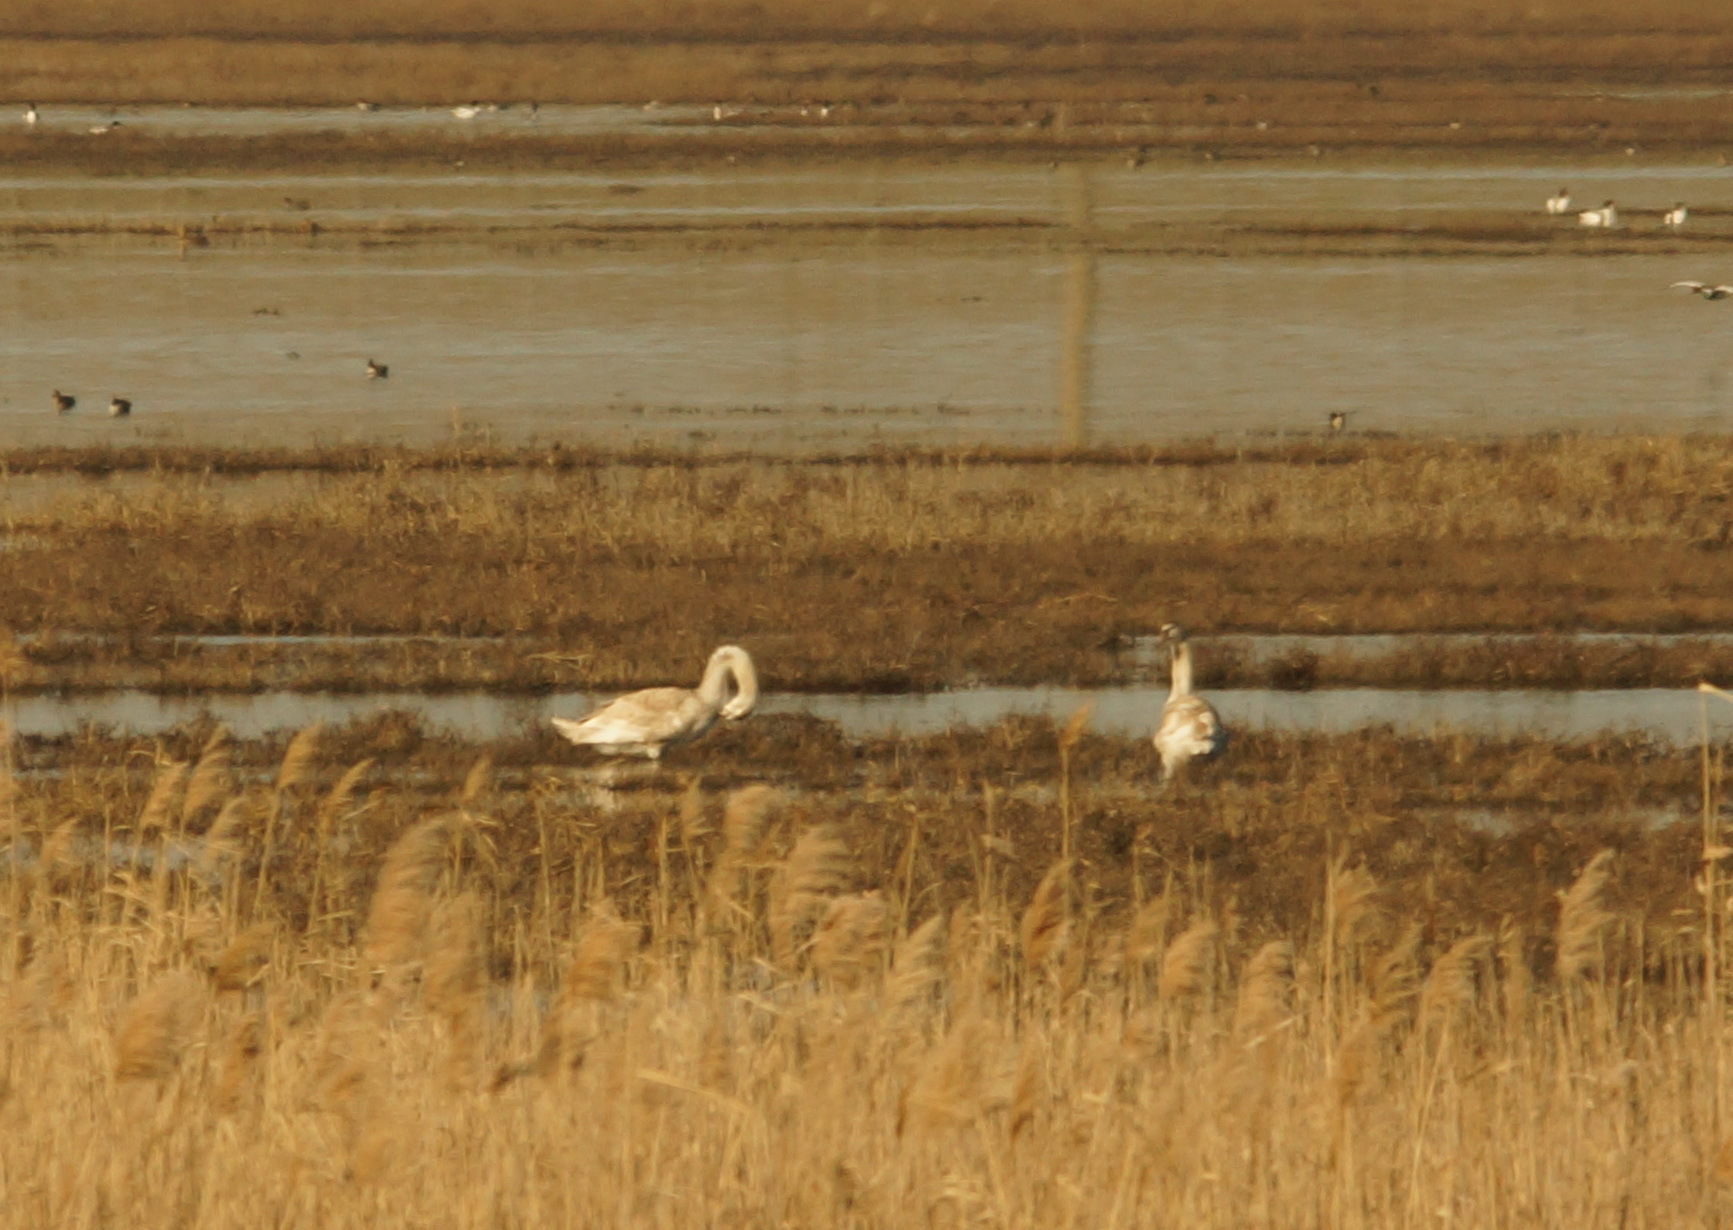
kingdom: Animalia
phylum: Chordata
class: Aves
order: Anseriformes
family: Anatidae
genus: Cygnus
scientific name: Cygnus olor
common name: Mute swan
